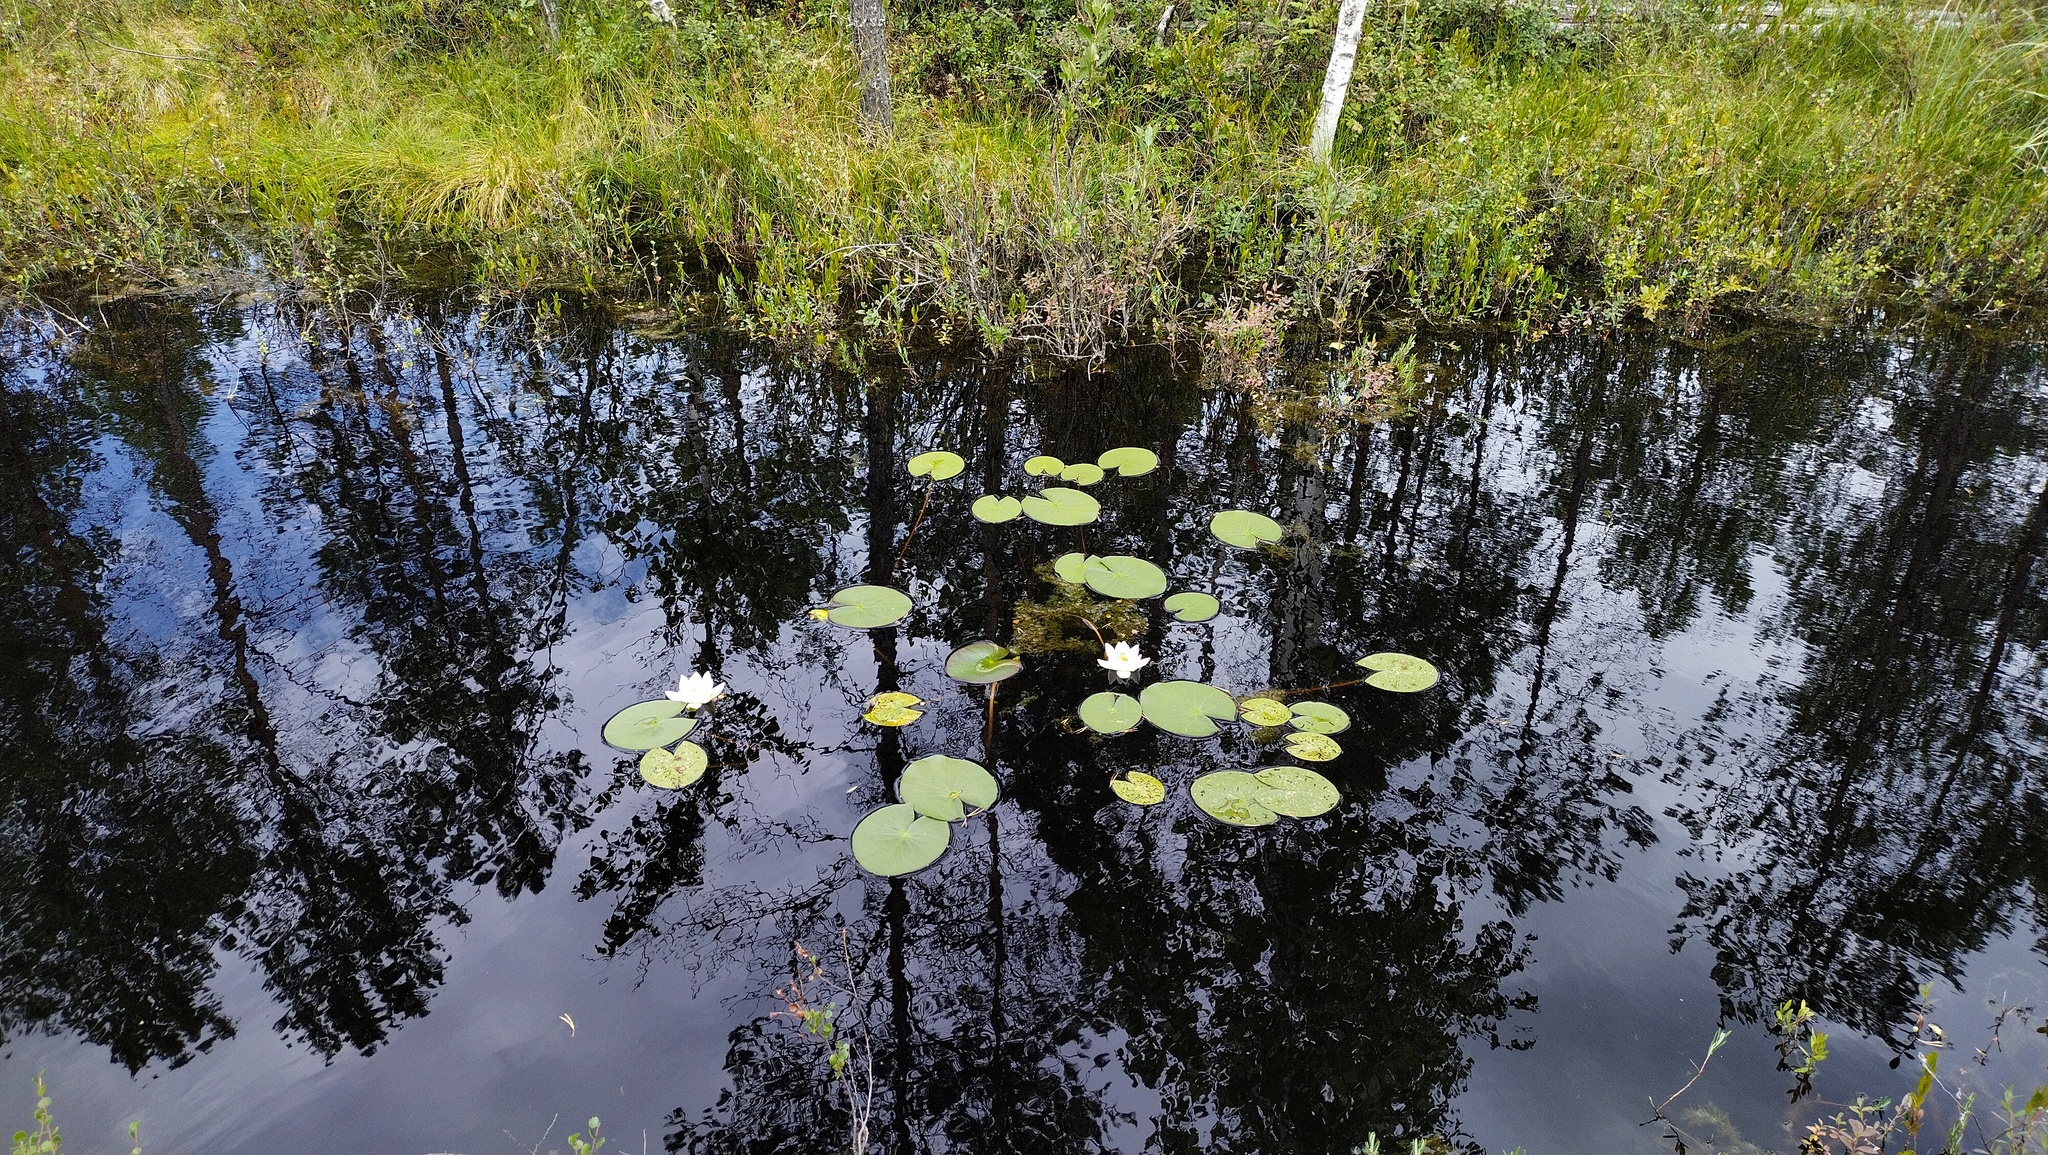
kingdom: Plantae
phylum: Tracheophyta
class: Magnoliopsida
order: Nymphaeales
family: Nymphaeaceae
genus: Nymphaea
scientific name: Nymphaea candida
